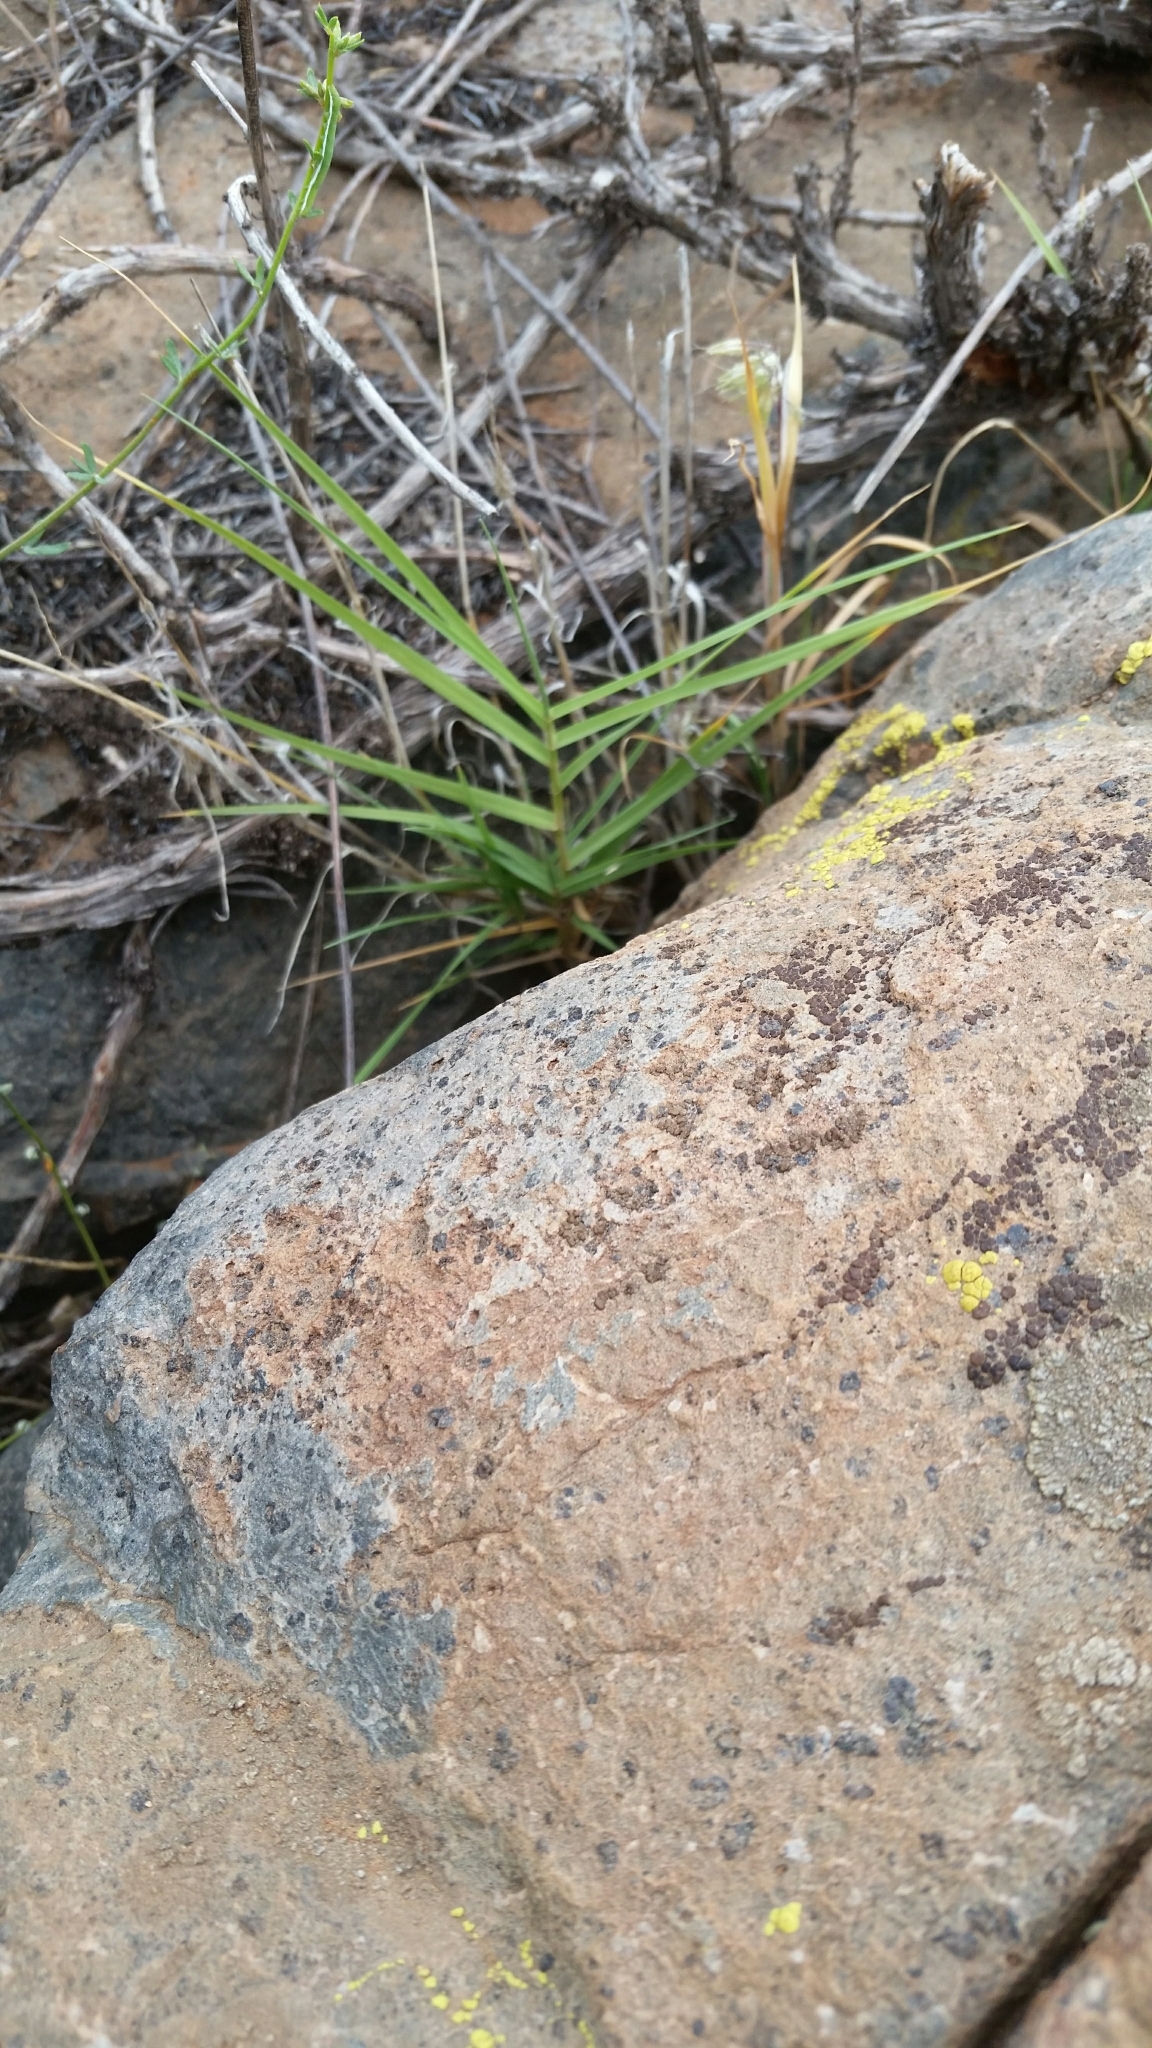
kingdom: Plantae
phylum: Tracheophyta
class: Liliopsida
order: Poales
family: Poaceae
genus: Distichlis
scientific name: Distichlis spicata
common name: Saltgrass
